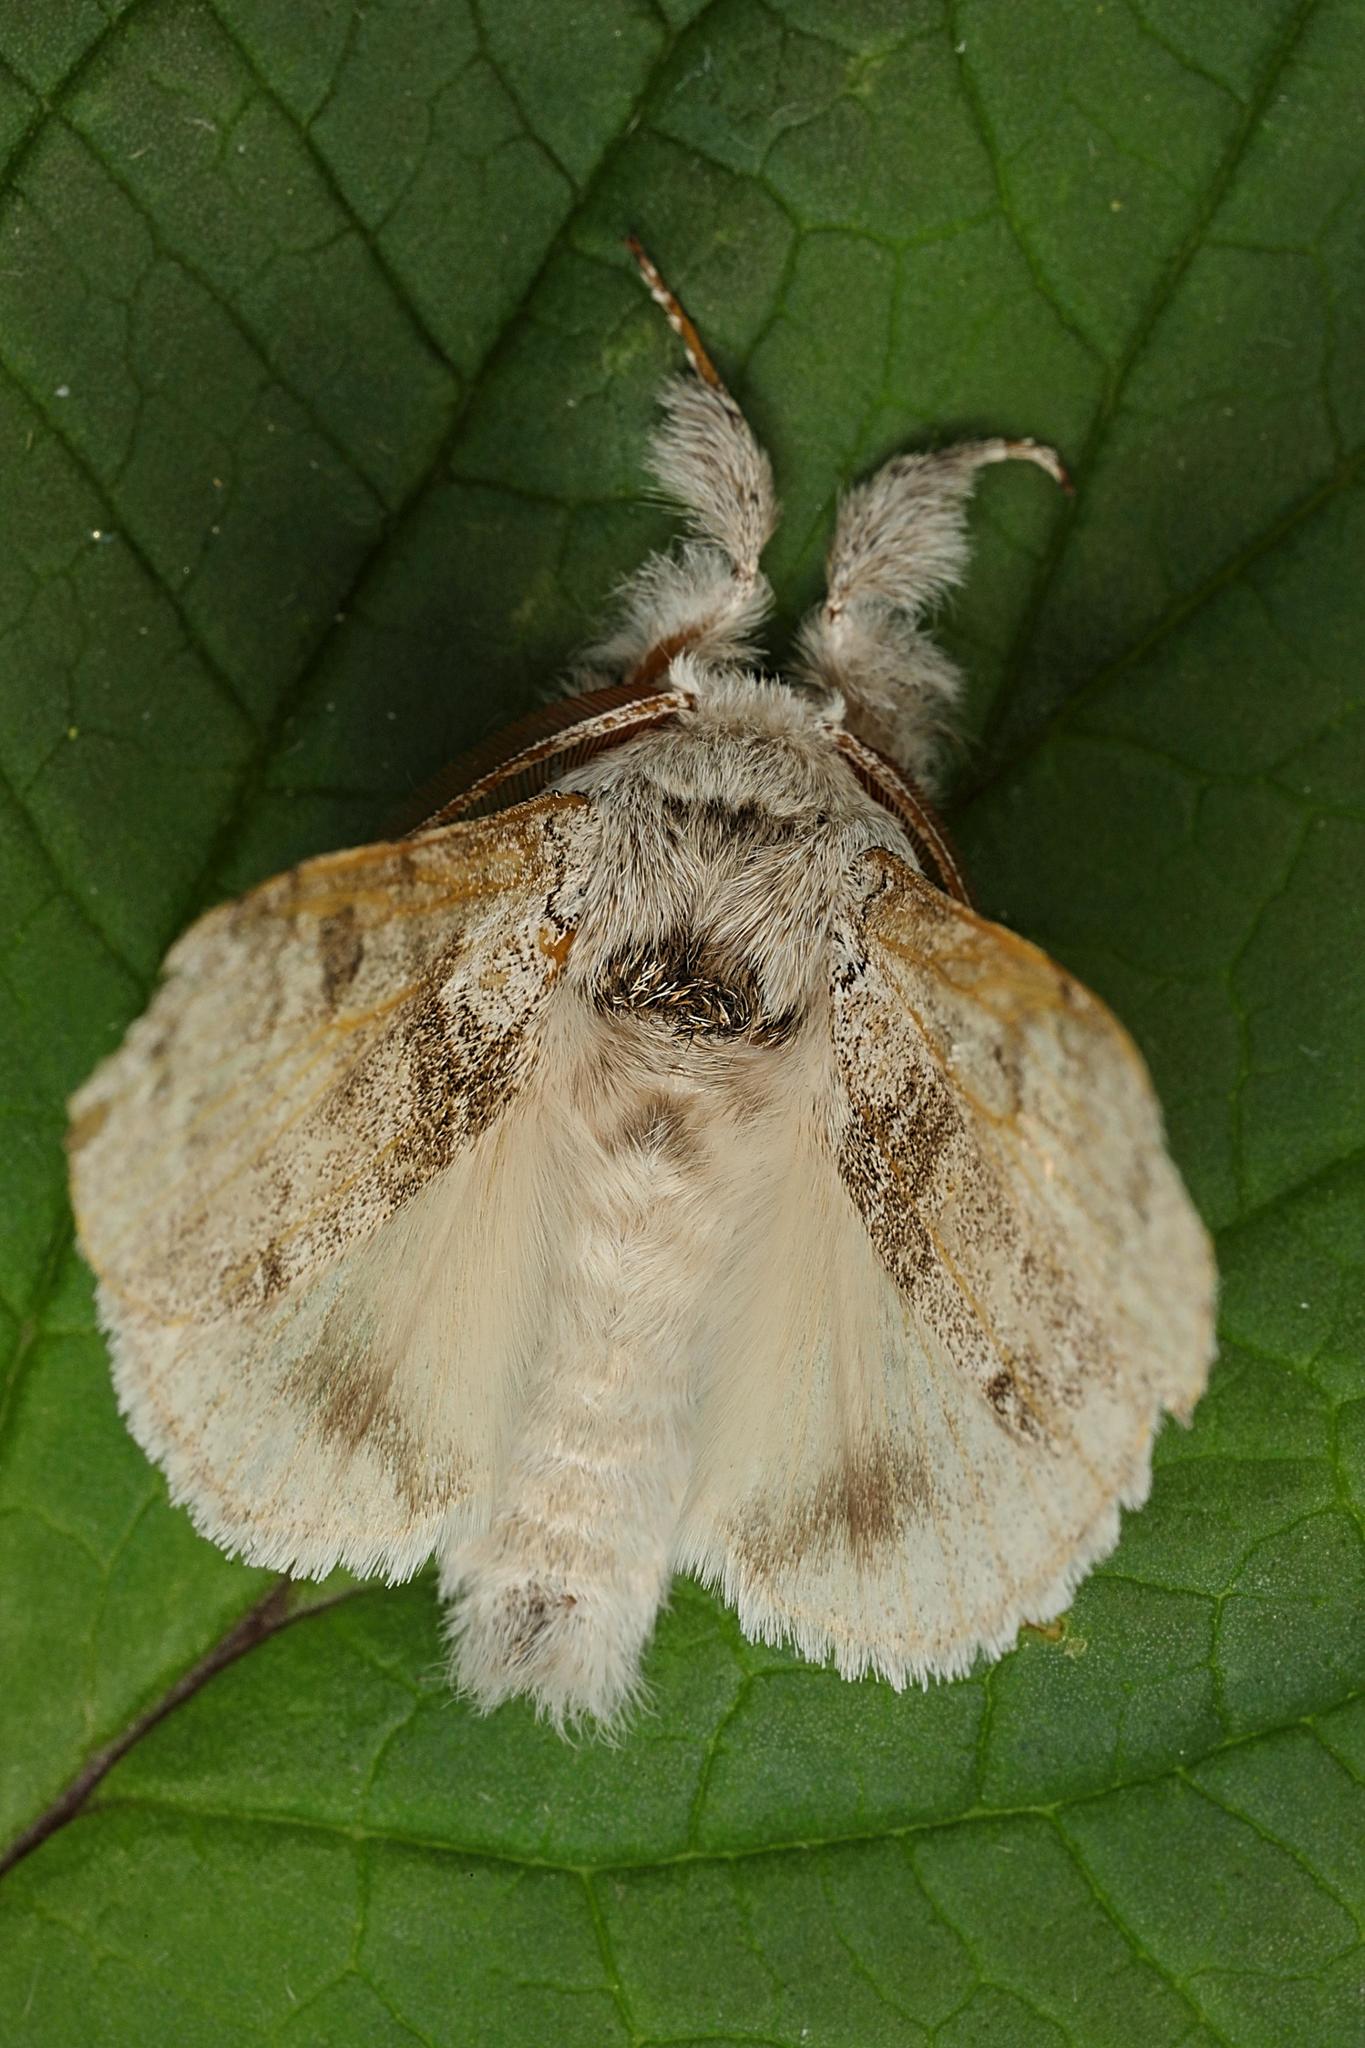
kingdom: Animalia
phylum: Arthropoda
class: Insecta
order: Lepidoptera
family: Erebidae
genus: Calliteara
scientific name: Calliteara pudibunda
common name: Pale tussock
